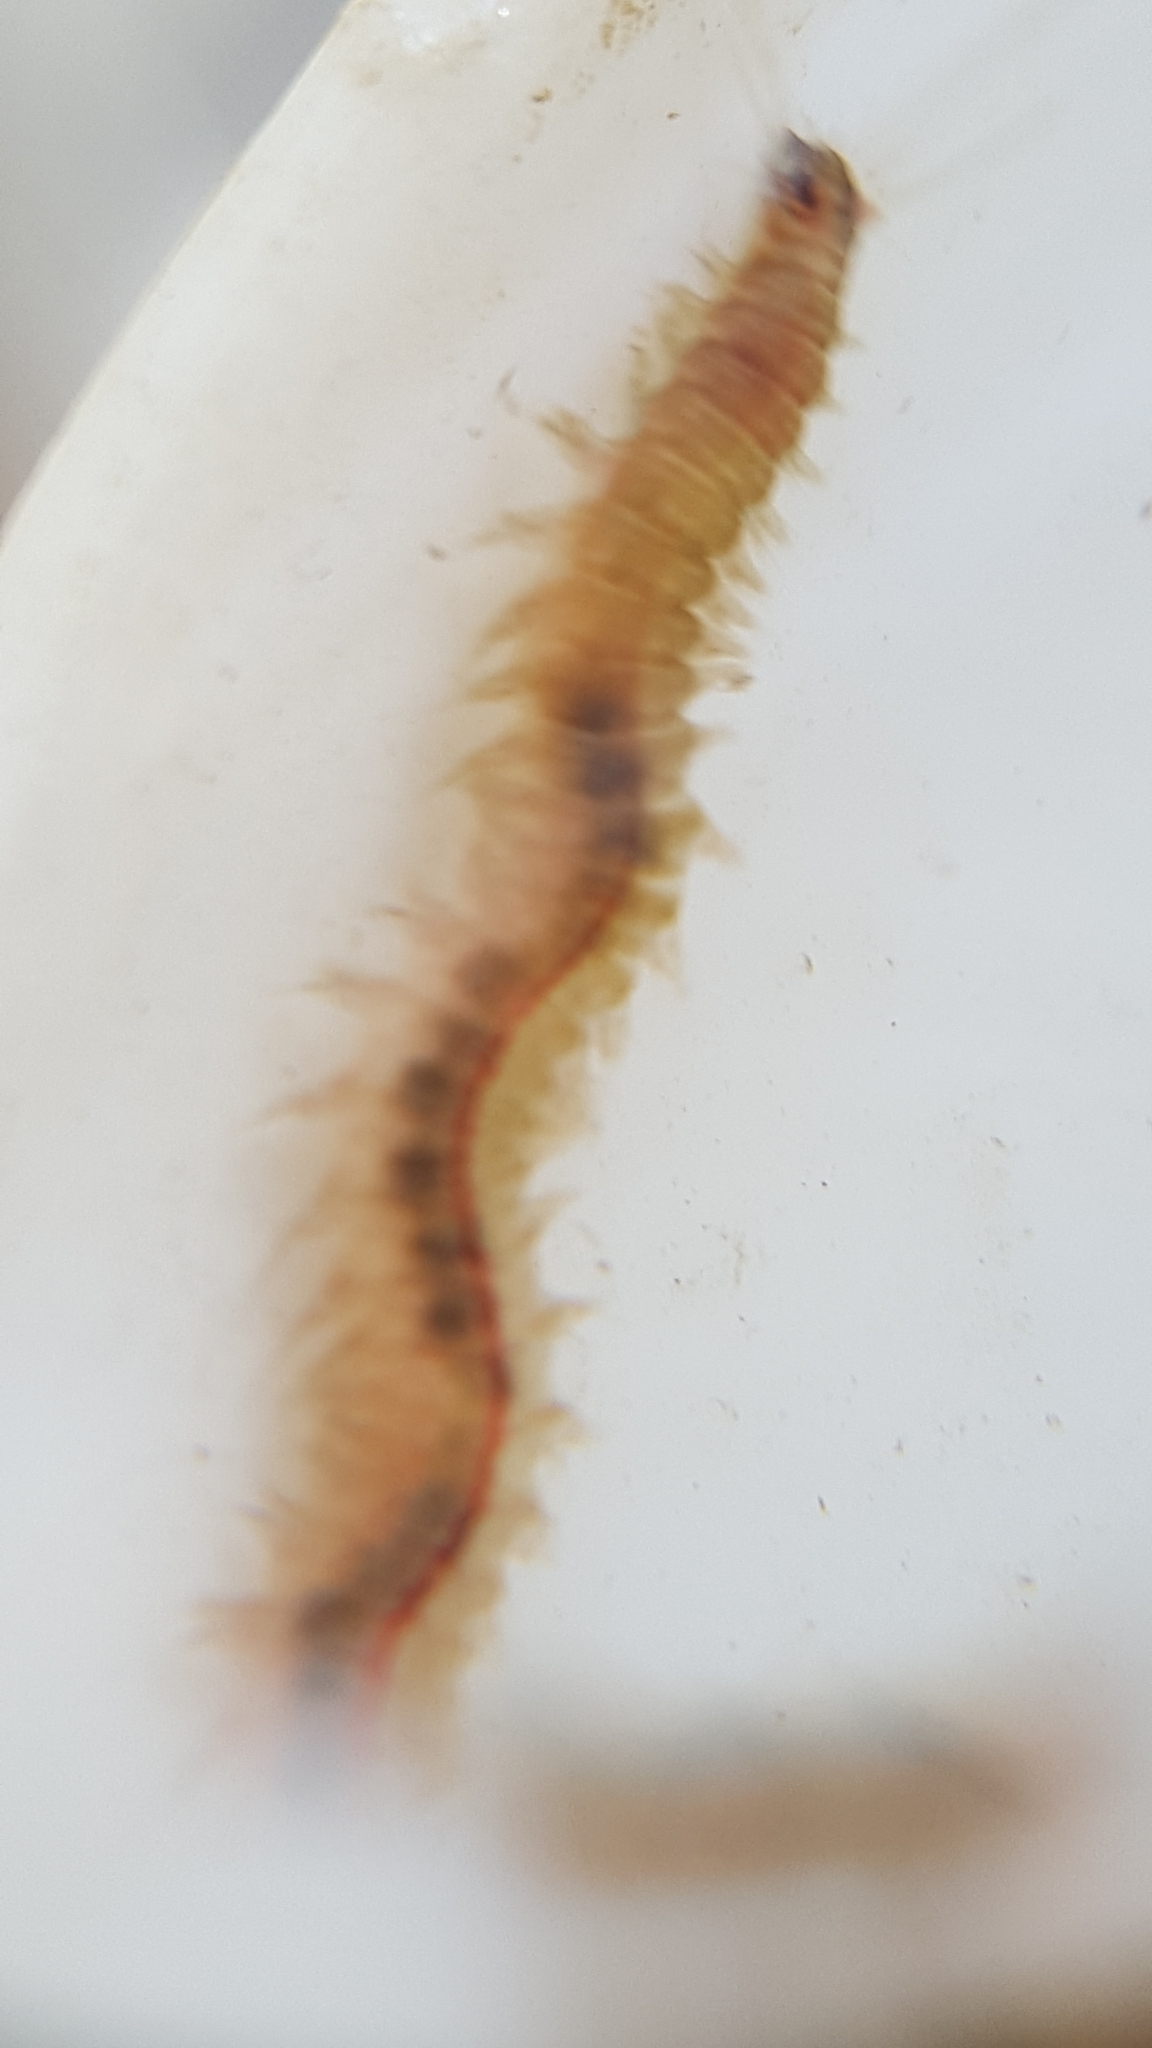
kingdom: Animalia
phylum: Annelida
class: Polychaeta
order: Phyllodocida
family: Nereididae
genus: Hediste
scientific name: Hediste limnicola
